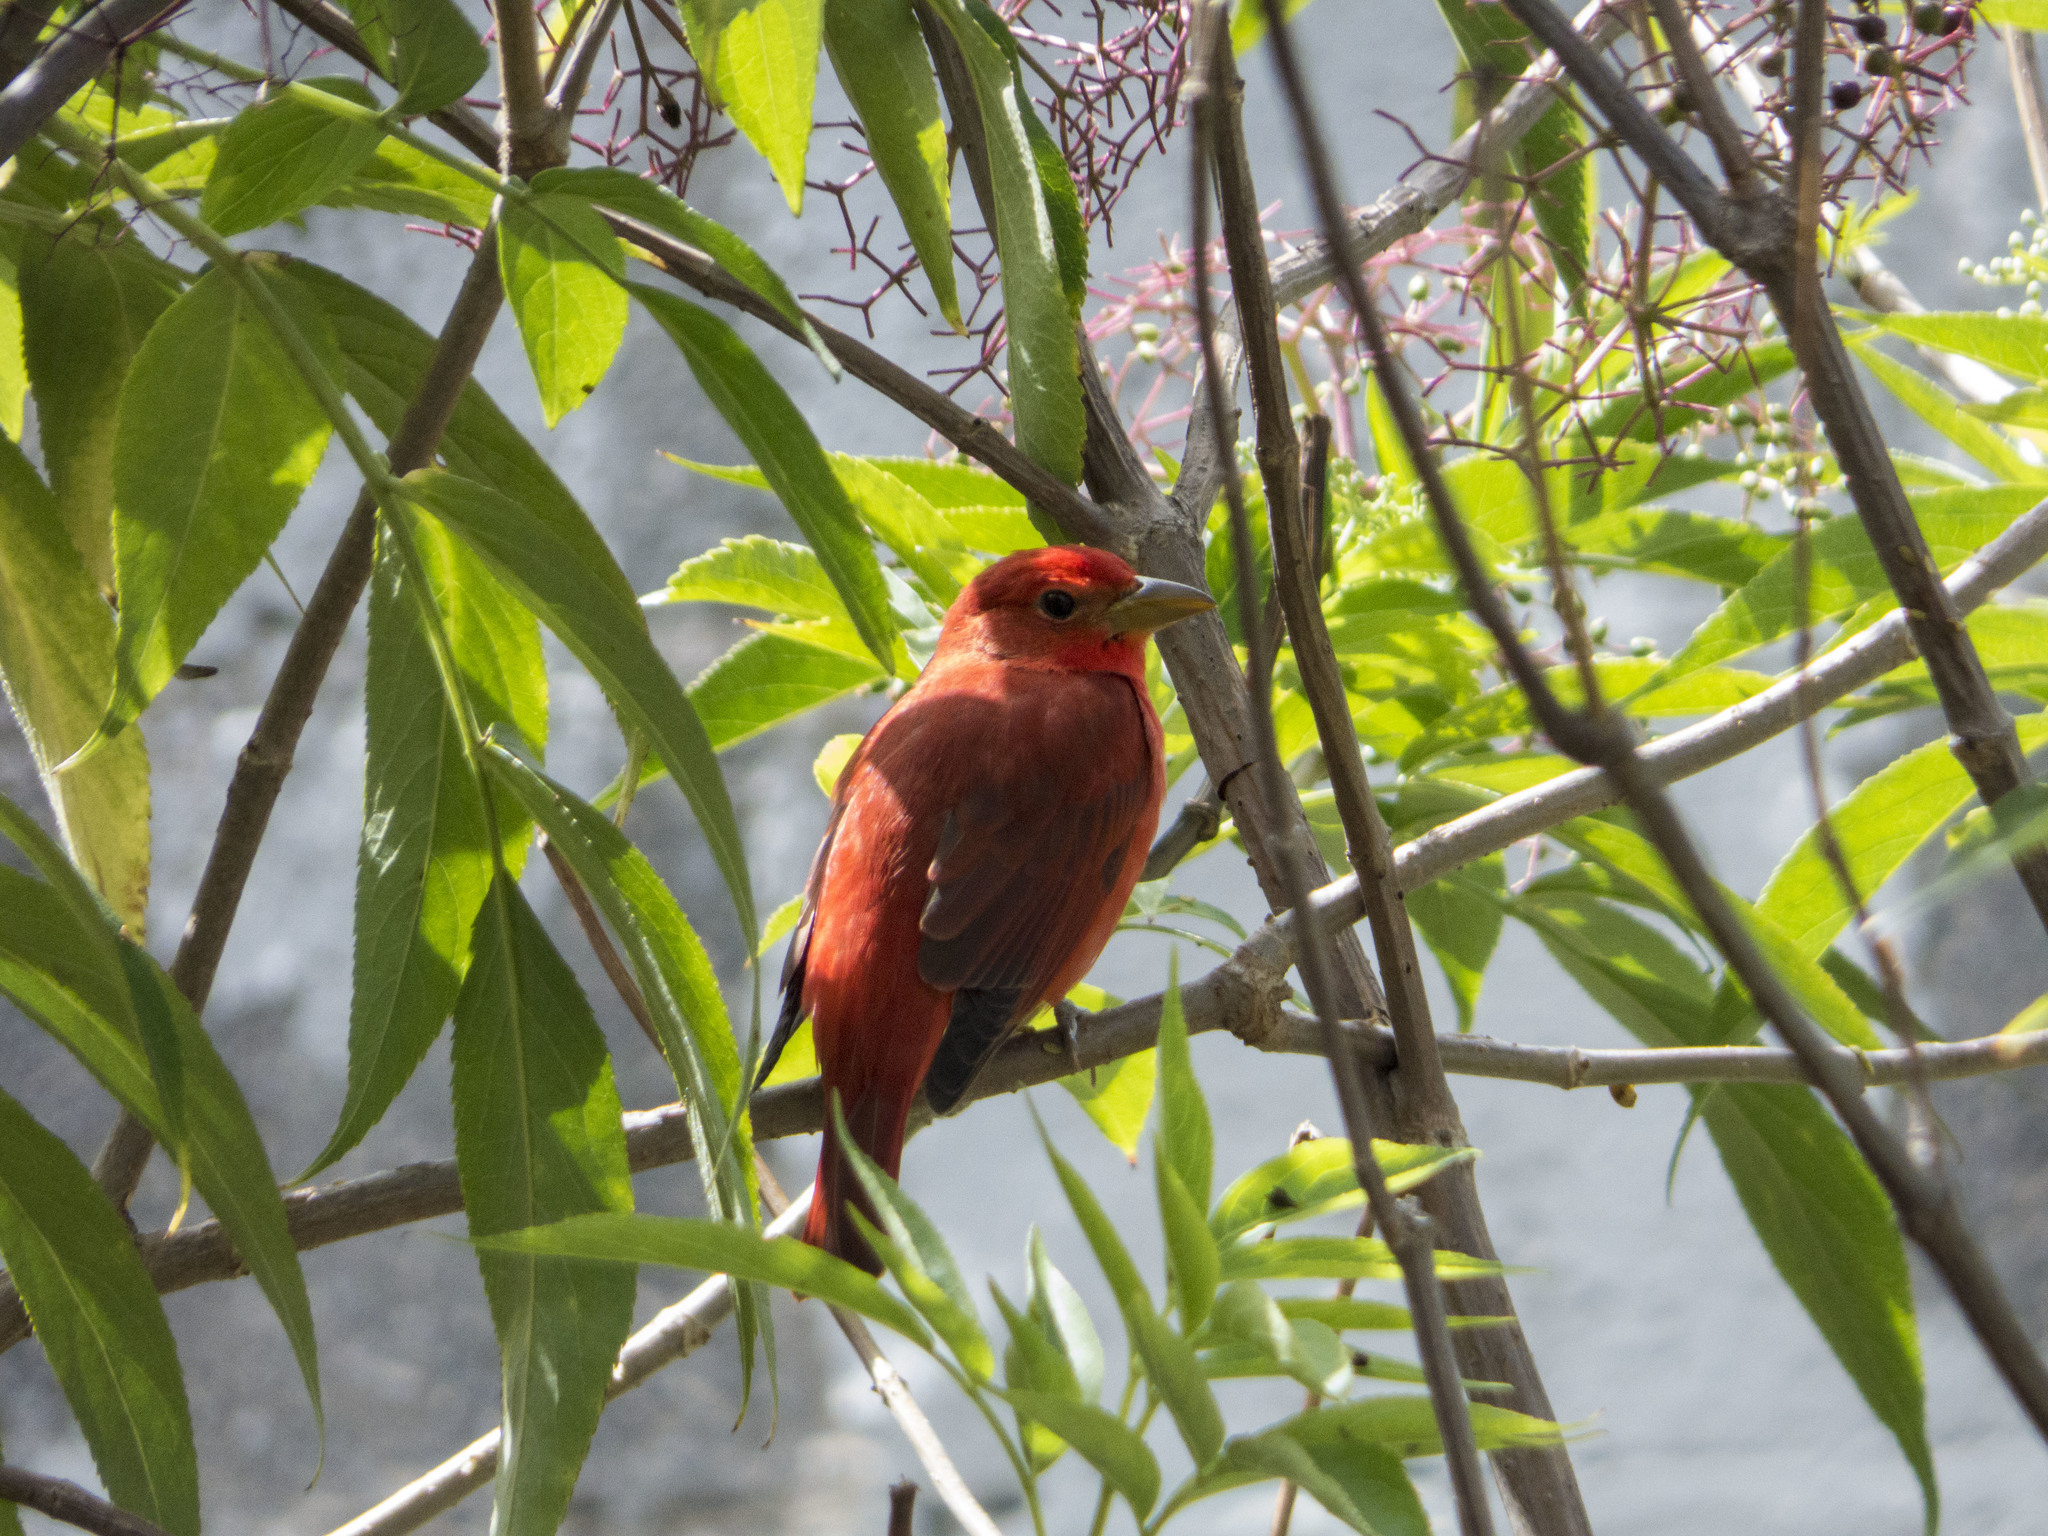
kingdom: Animalia
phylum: Chordata
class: Aves
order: Passeriformes
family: Cardinalidae
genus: Piranga
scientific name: Piranga rubra
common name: Summer tanager
